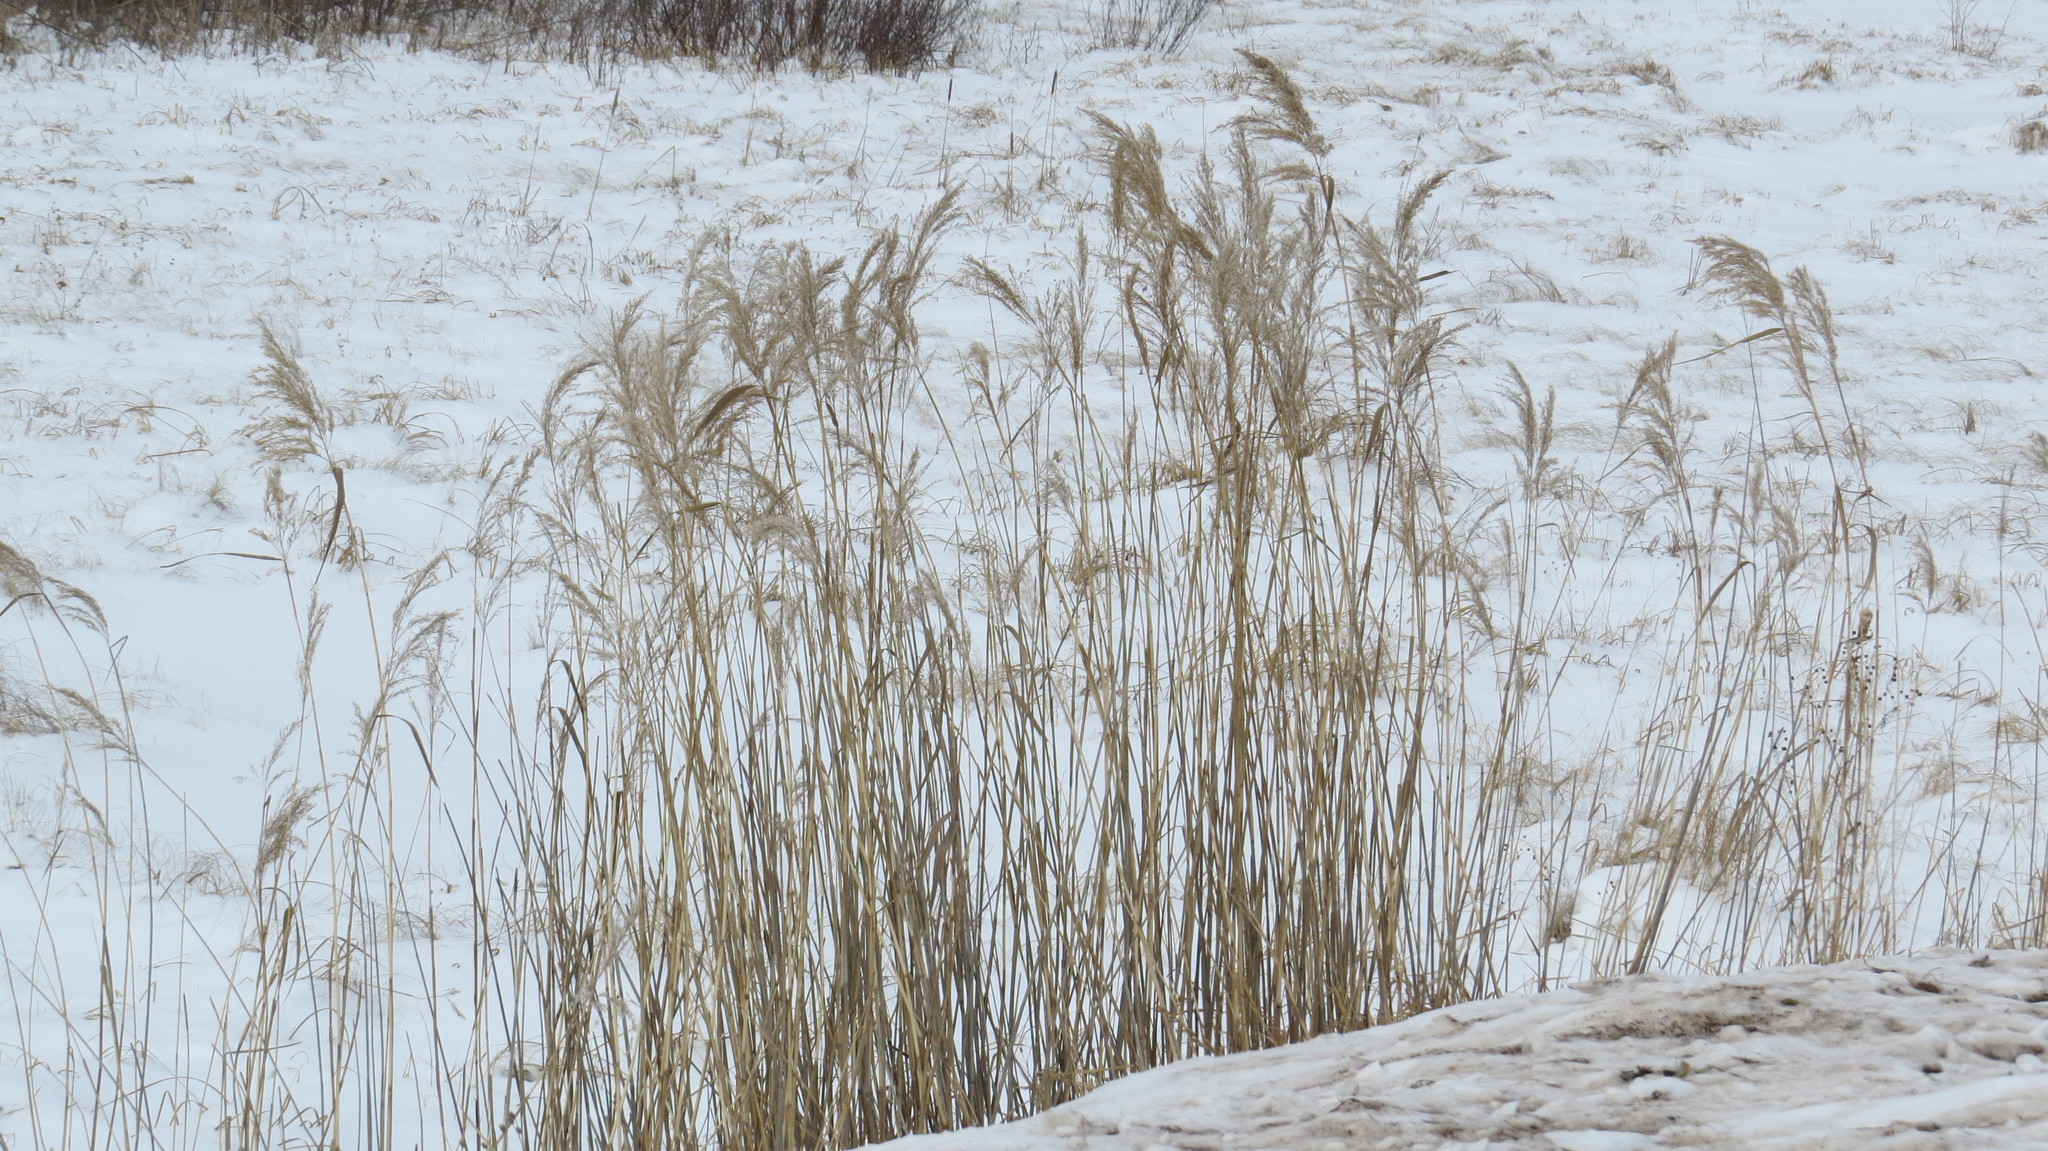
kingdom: Plantae
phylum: Tracheophyta
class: Liliopsida
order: Poales
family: Poaceae
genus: Phragmites
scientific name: Phragmites australis
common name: Common reed
